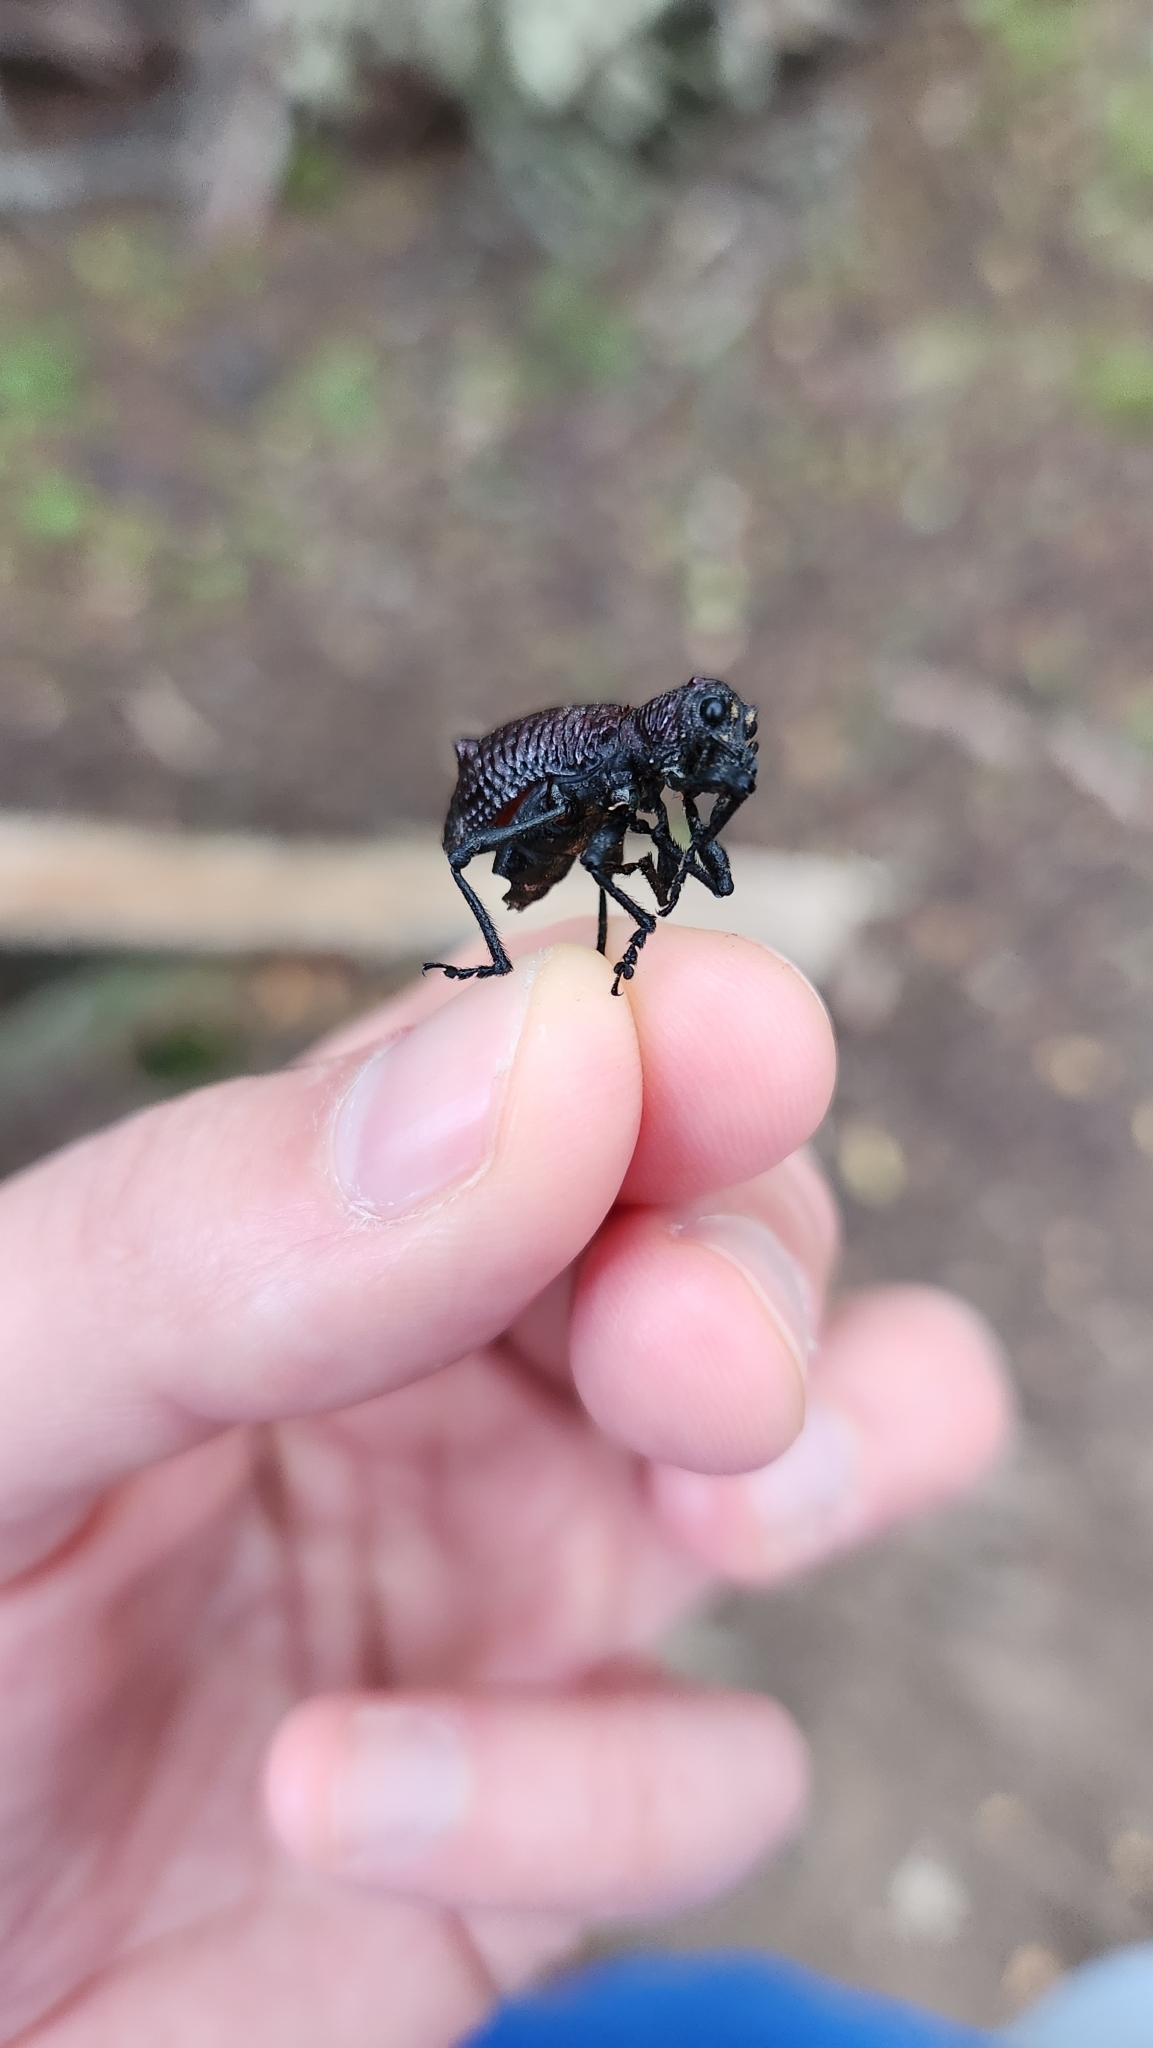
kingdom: Animalia
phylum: Arthropoda
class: Insecta
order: Coleoptera
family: Curculionidae
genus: Aegorhinus
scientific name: Aegorhinus vitulus
